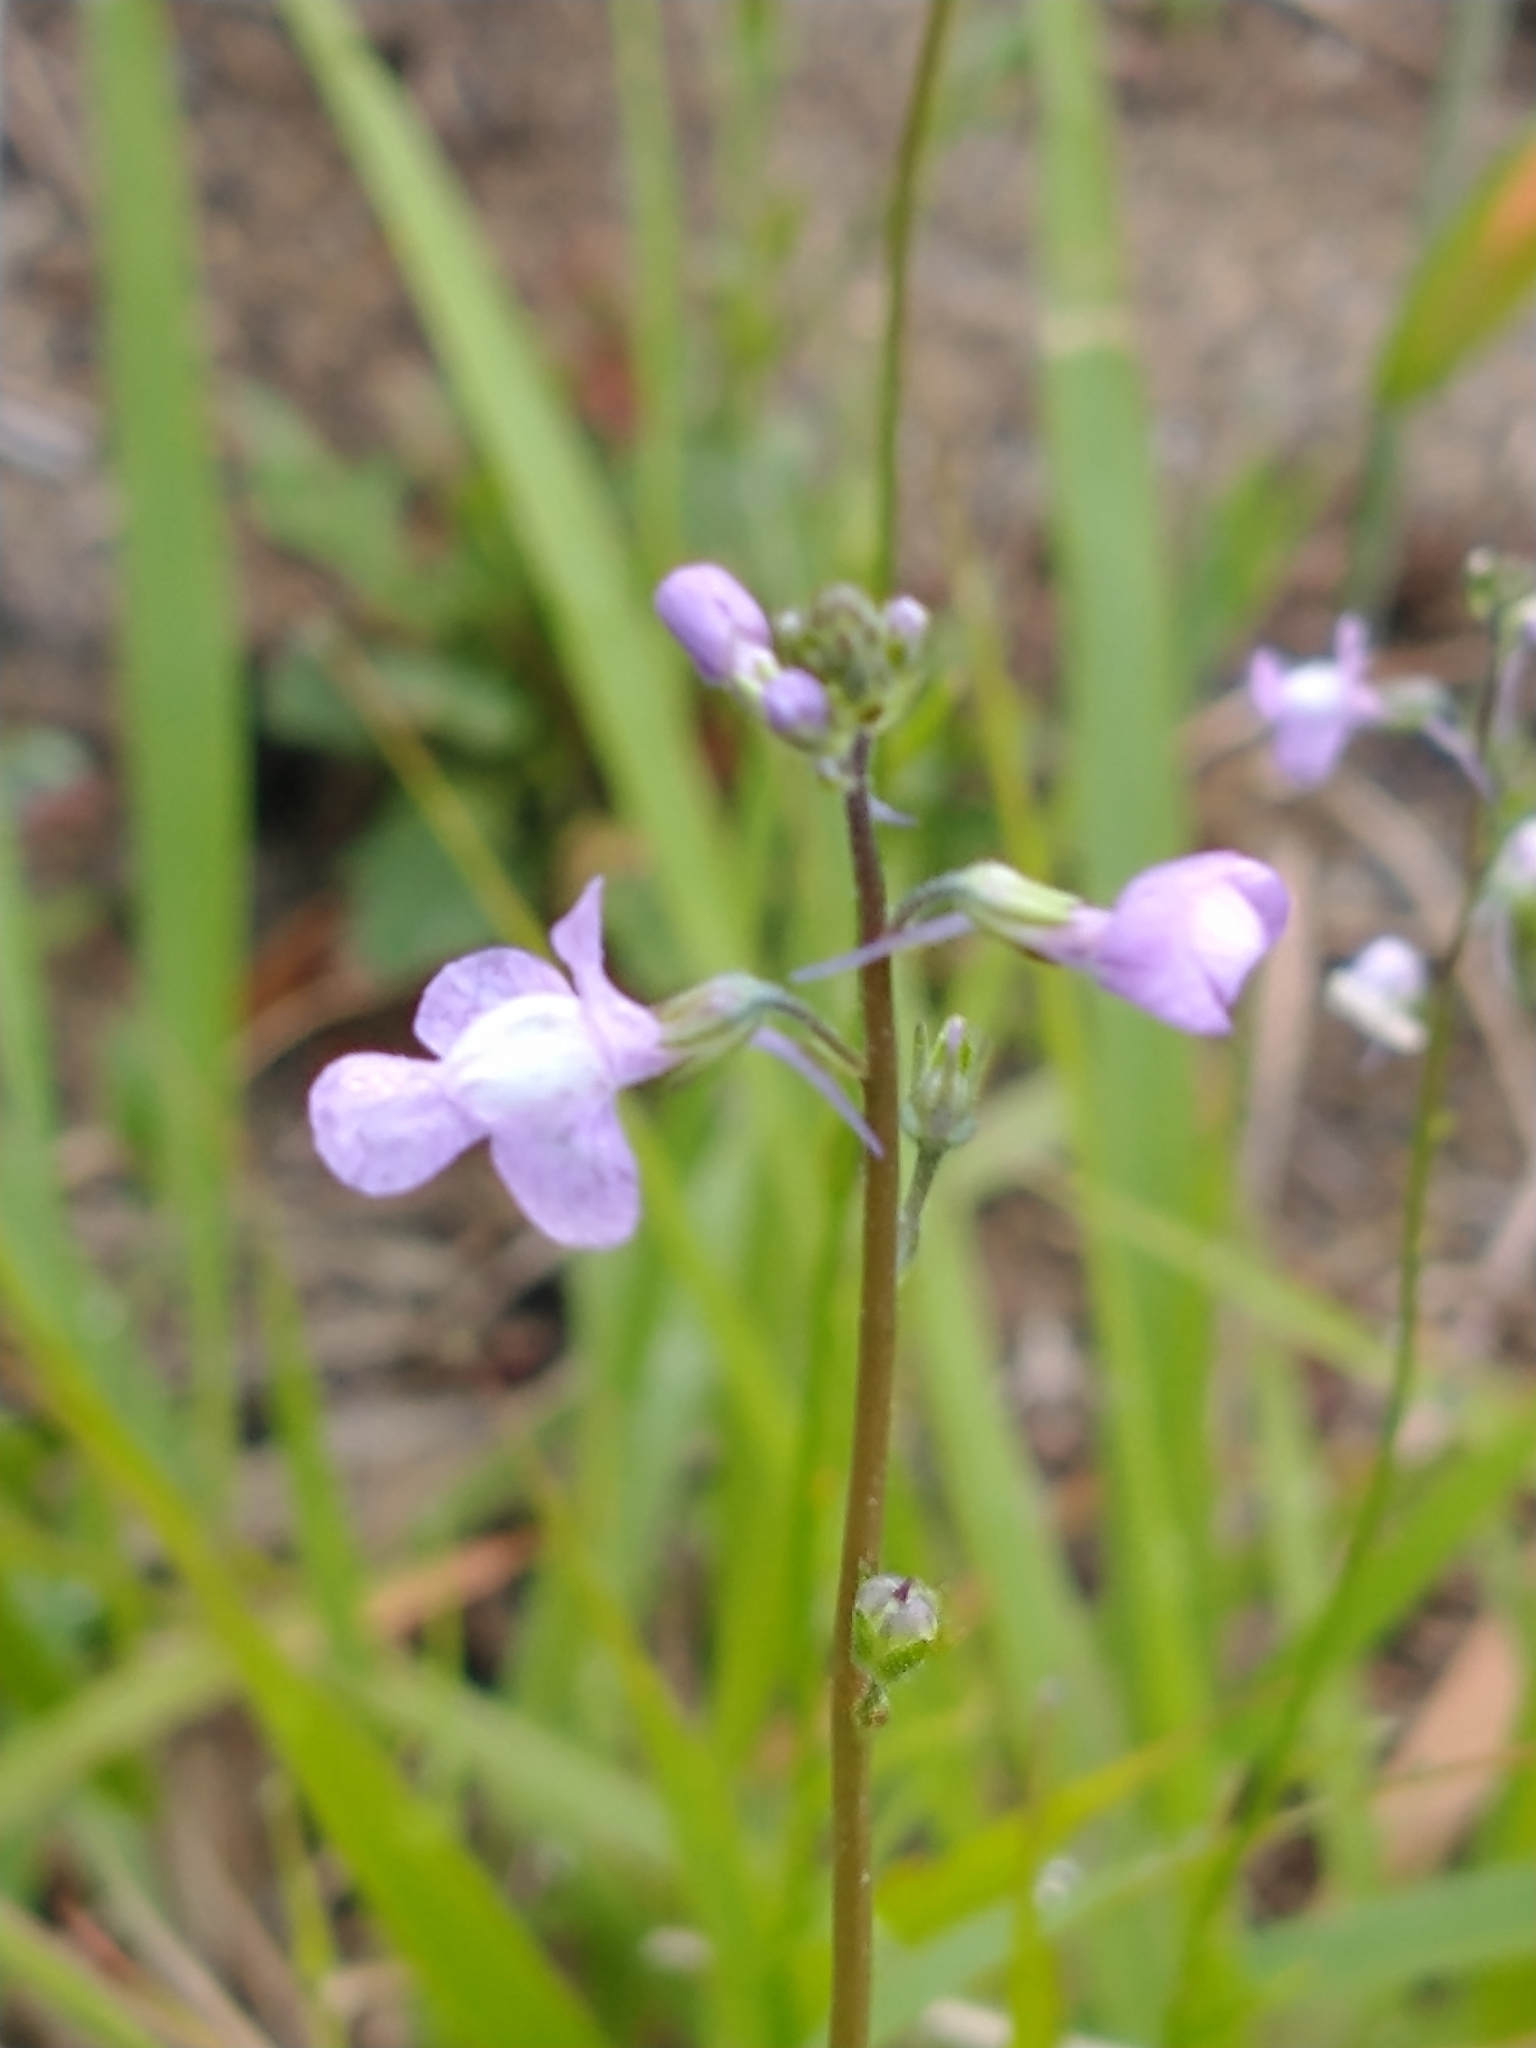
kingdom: Plantae
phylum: Tracheophyta
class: Magnoliopsida
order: Lamiales
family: Plantaginaceae
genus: Nuttallanthus
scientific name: Nuttallanthus canadensis
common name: Blue toadflax
